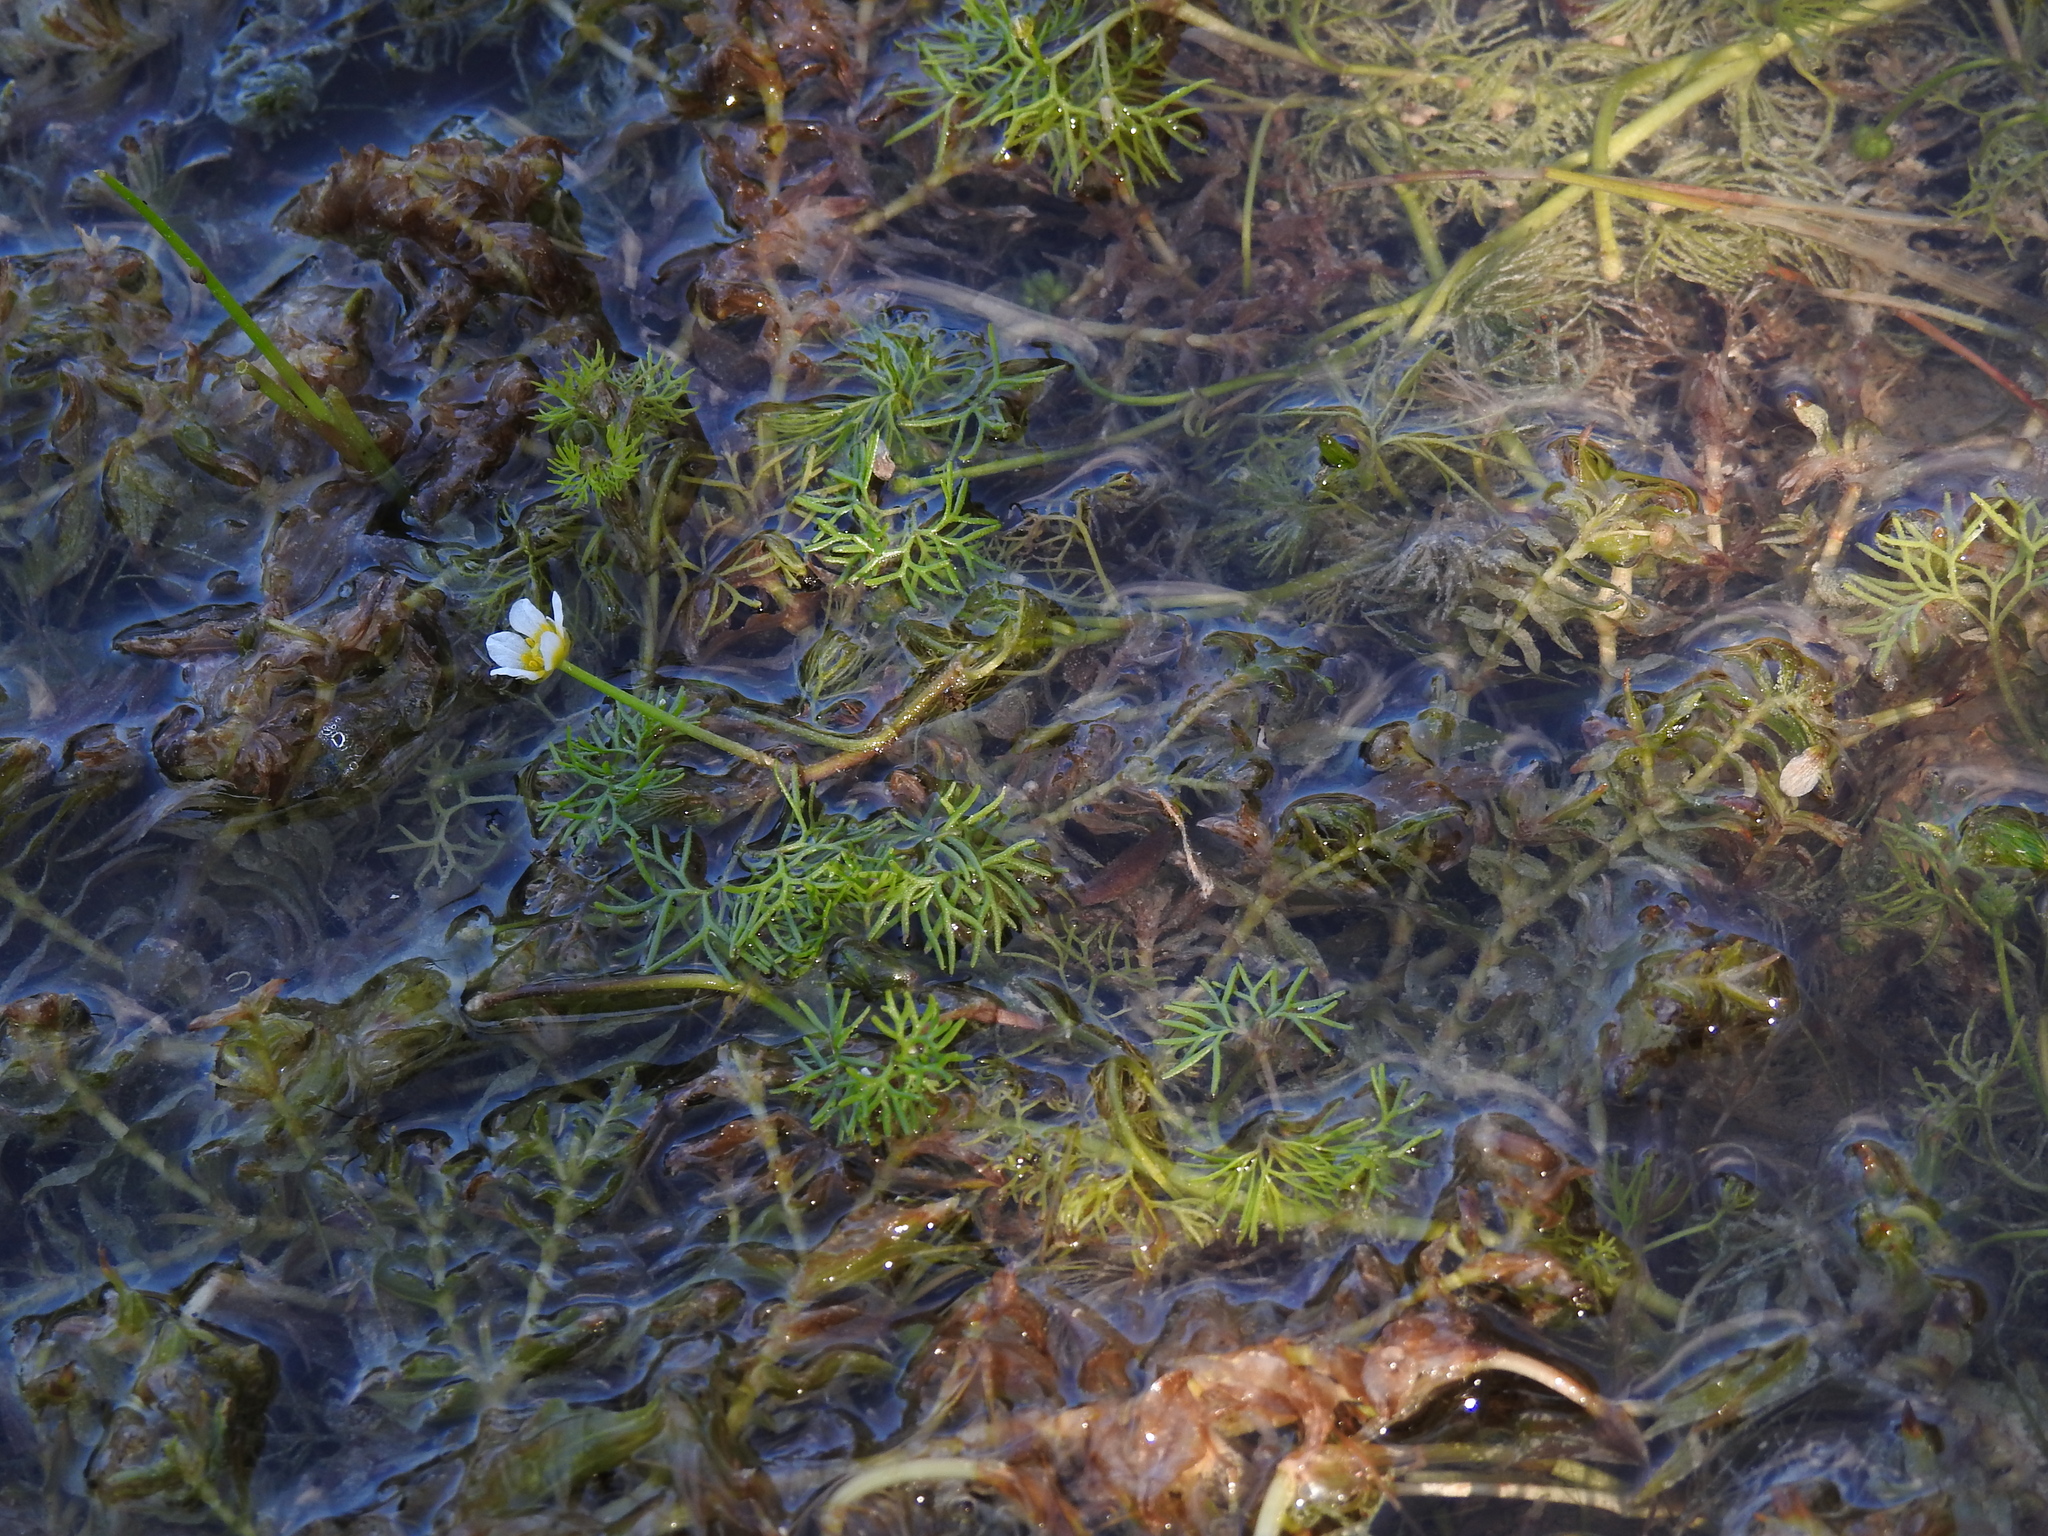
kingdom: Plantae
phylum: Tracheophyta
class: Magnoliopsida
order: Ranunculales
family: Ranunculaceae
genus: Ranunculus
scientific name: Ranunculus trichophyllus
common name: Thread-leaved water-crowfoot
